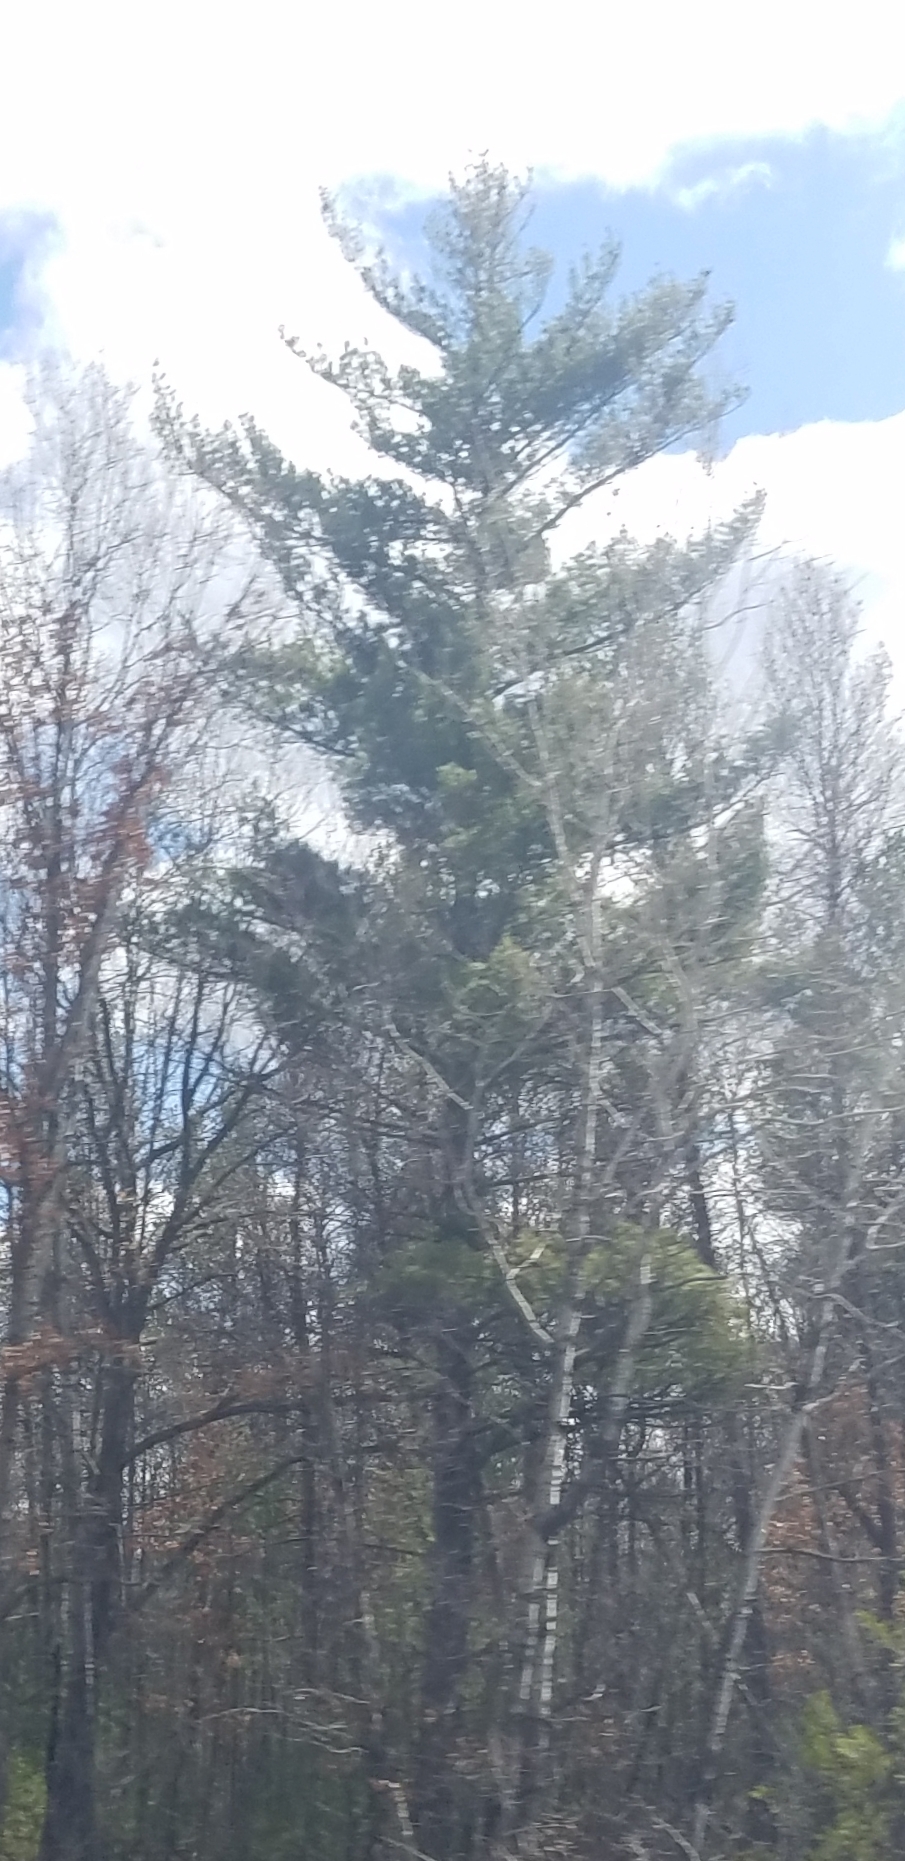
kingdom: Plantae
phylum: Tracheophyta
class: Pinopsida
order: Pinales
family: Pinaceae
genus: Pinus
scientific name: Pinus strobus
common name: Weymouth pine
